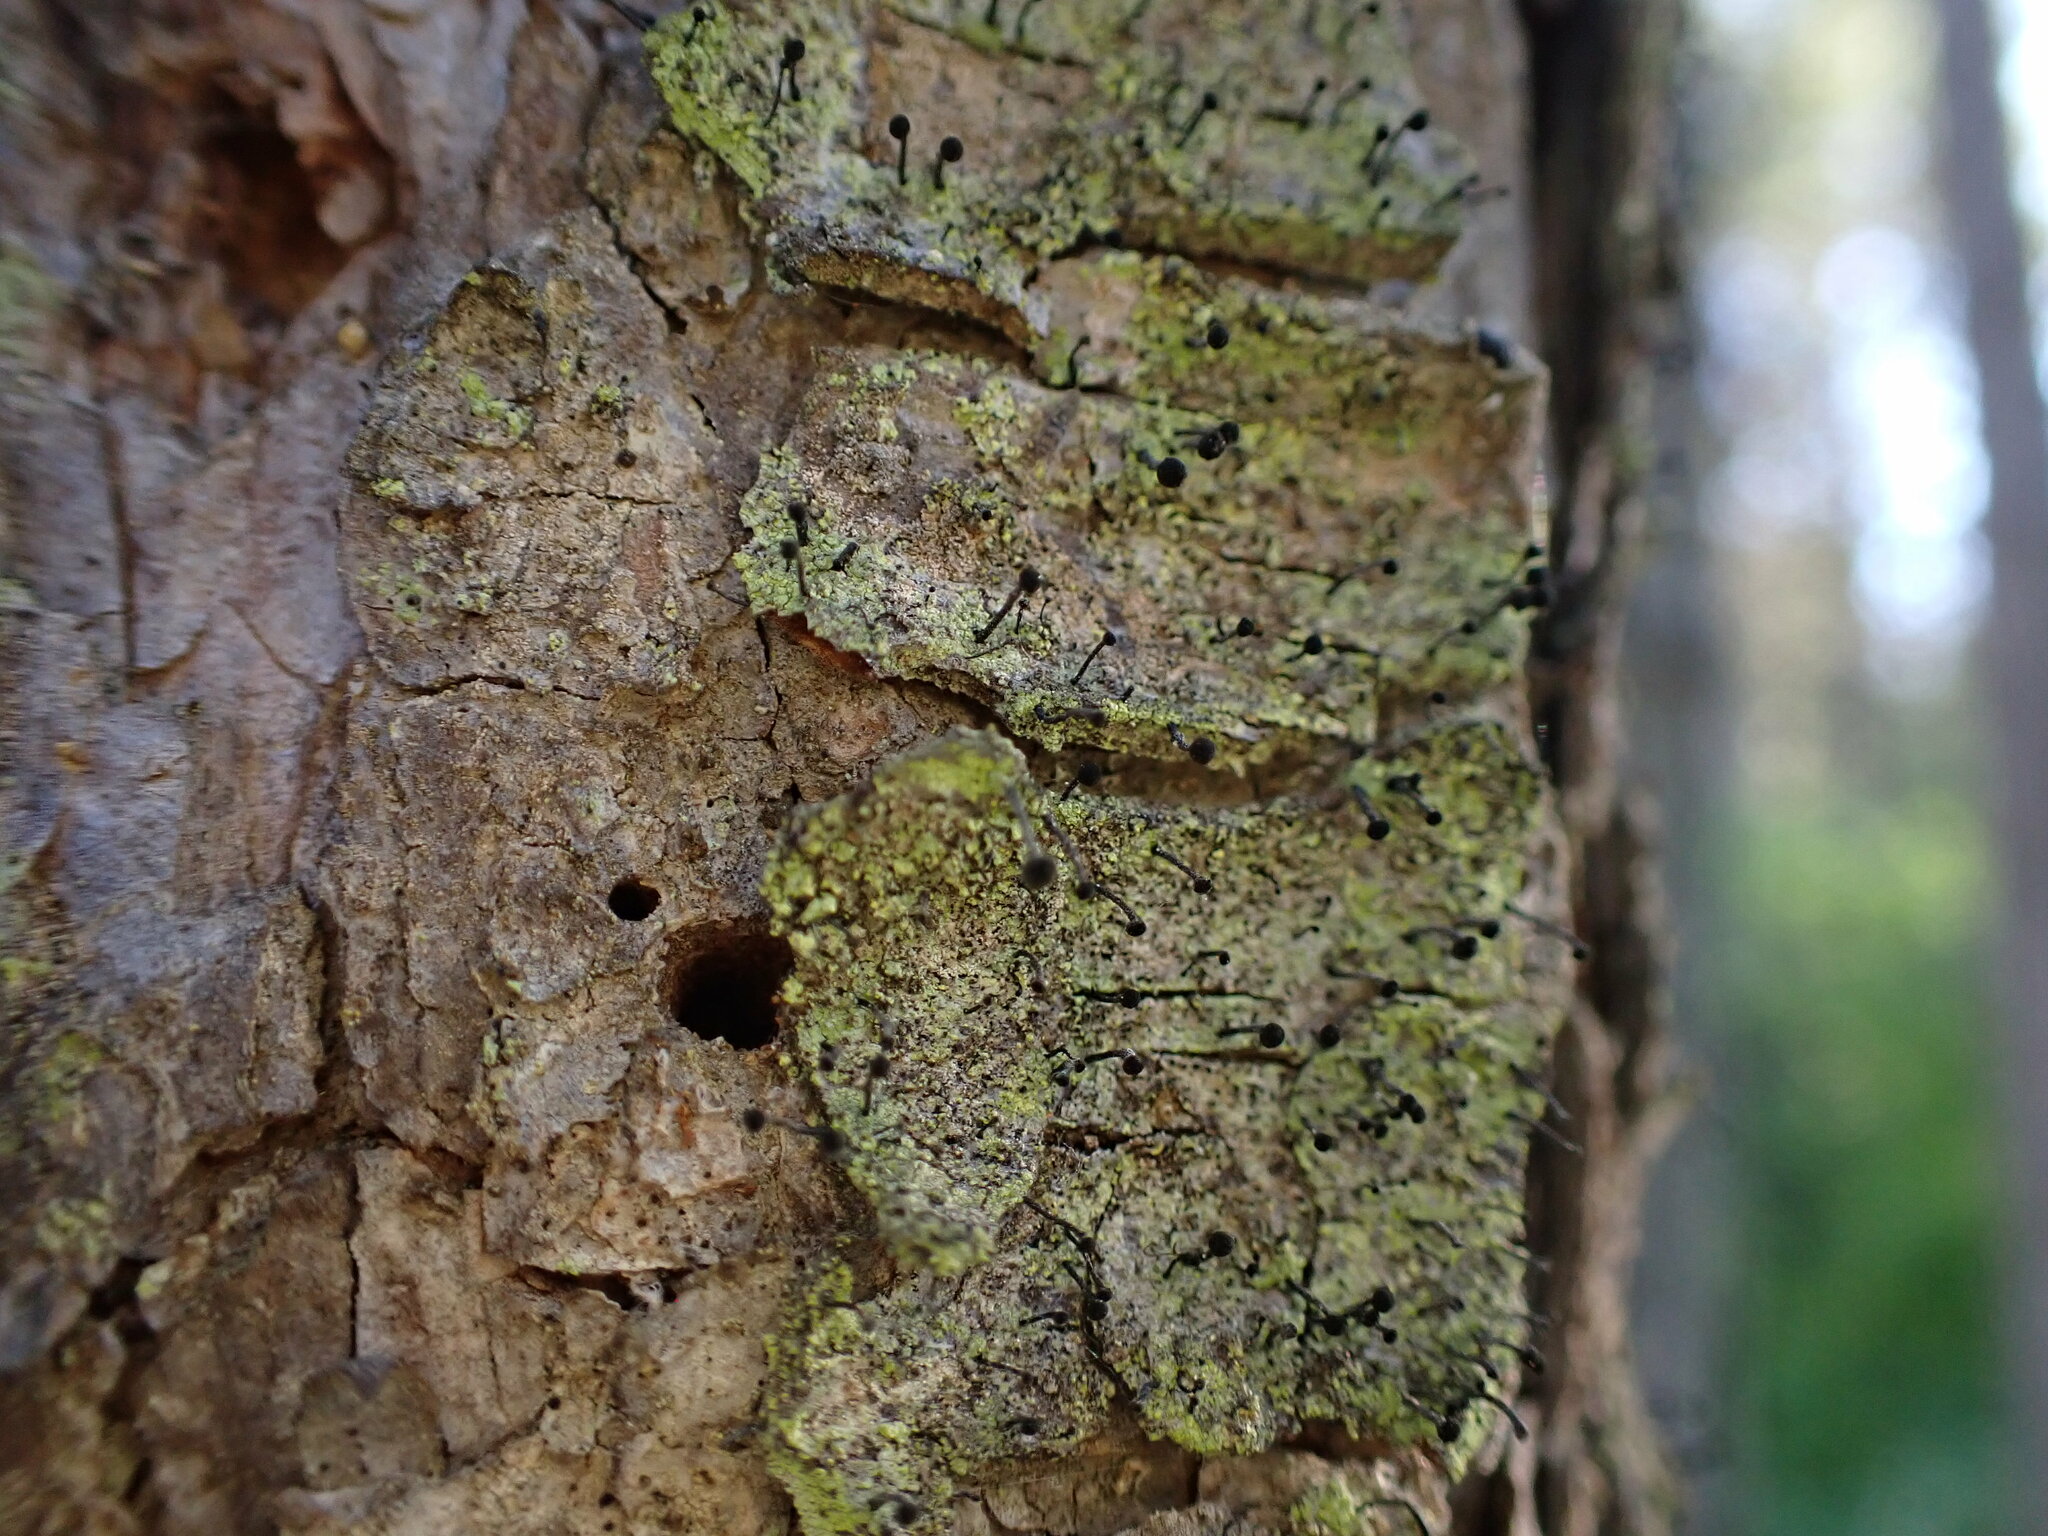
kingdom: Fungi
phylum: Ascomycota
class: Lecanoromycetes
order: Caliciales
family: Caliciaceae
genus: Calicium
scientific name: Calicium viride
